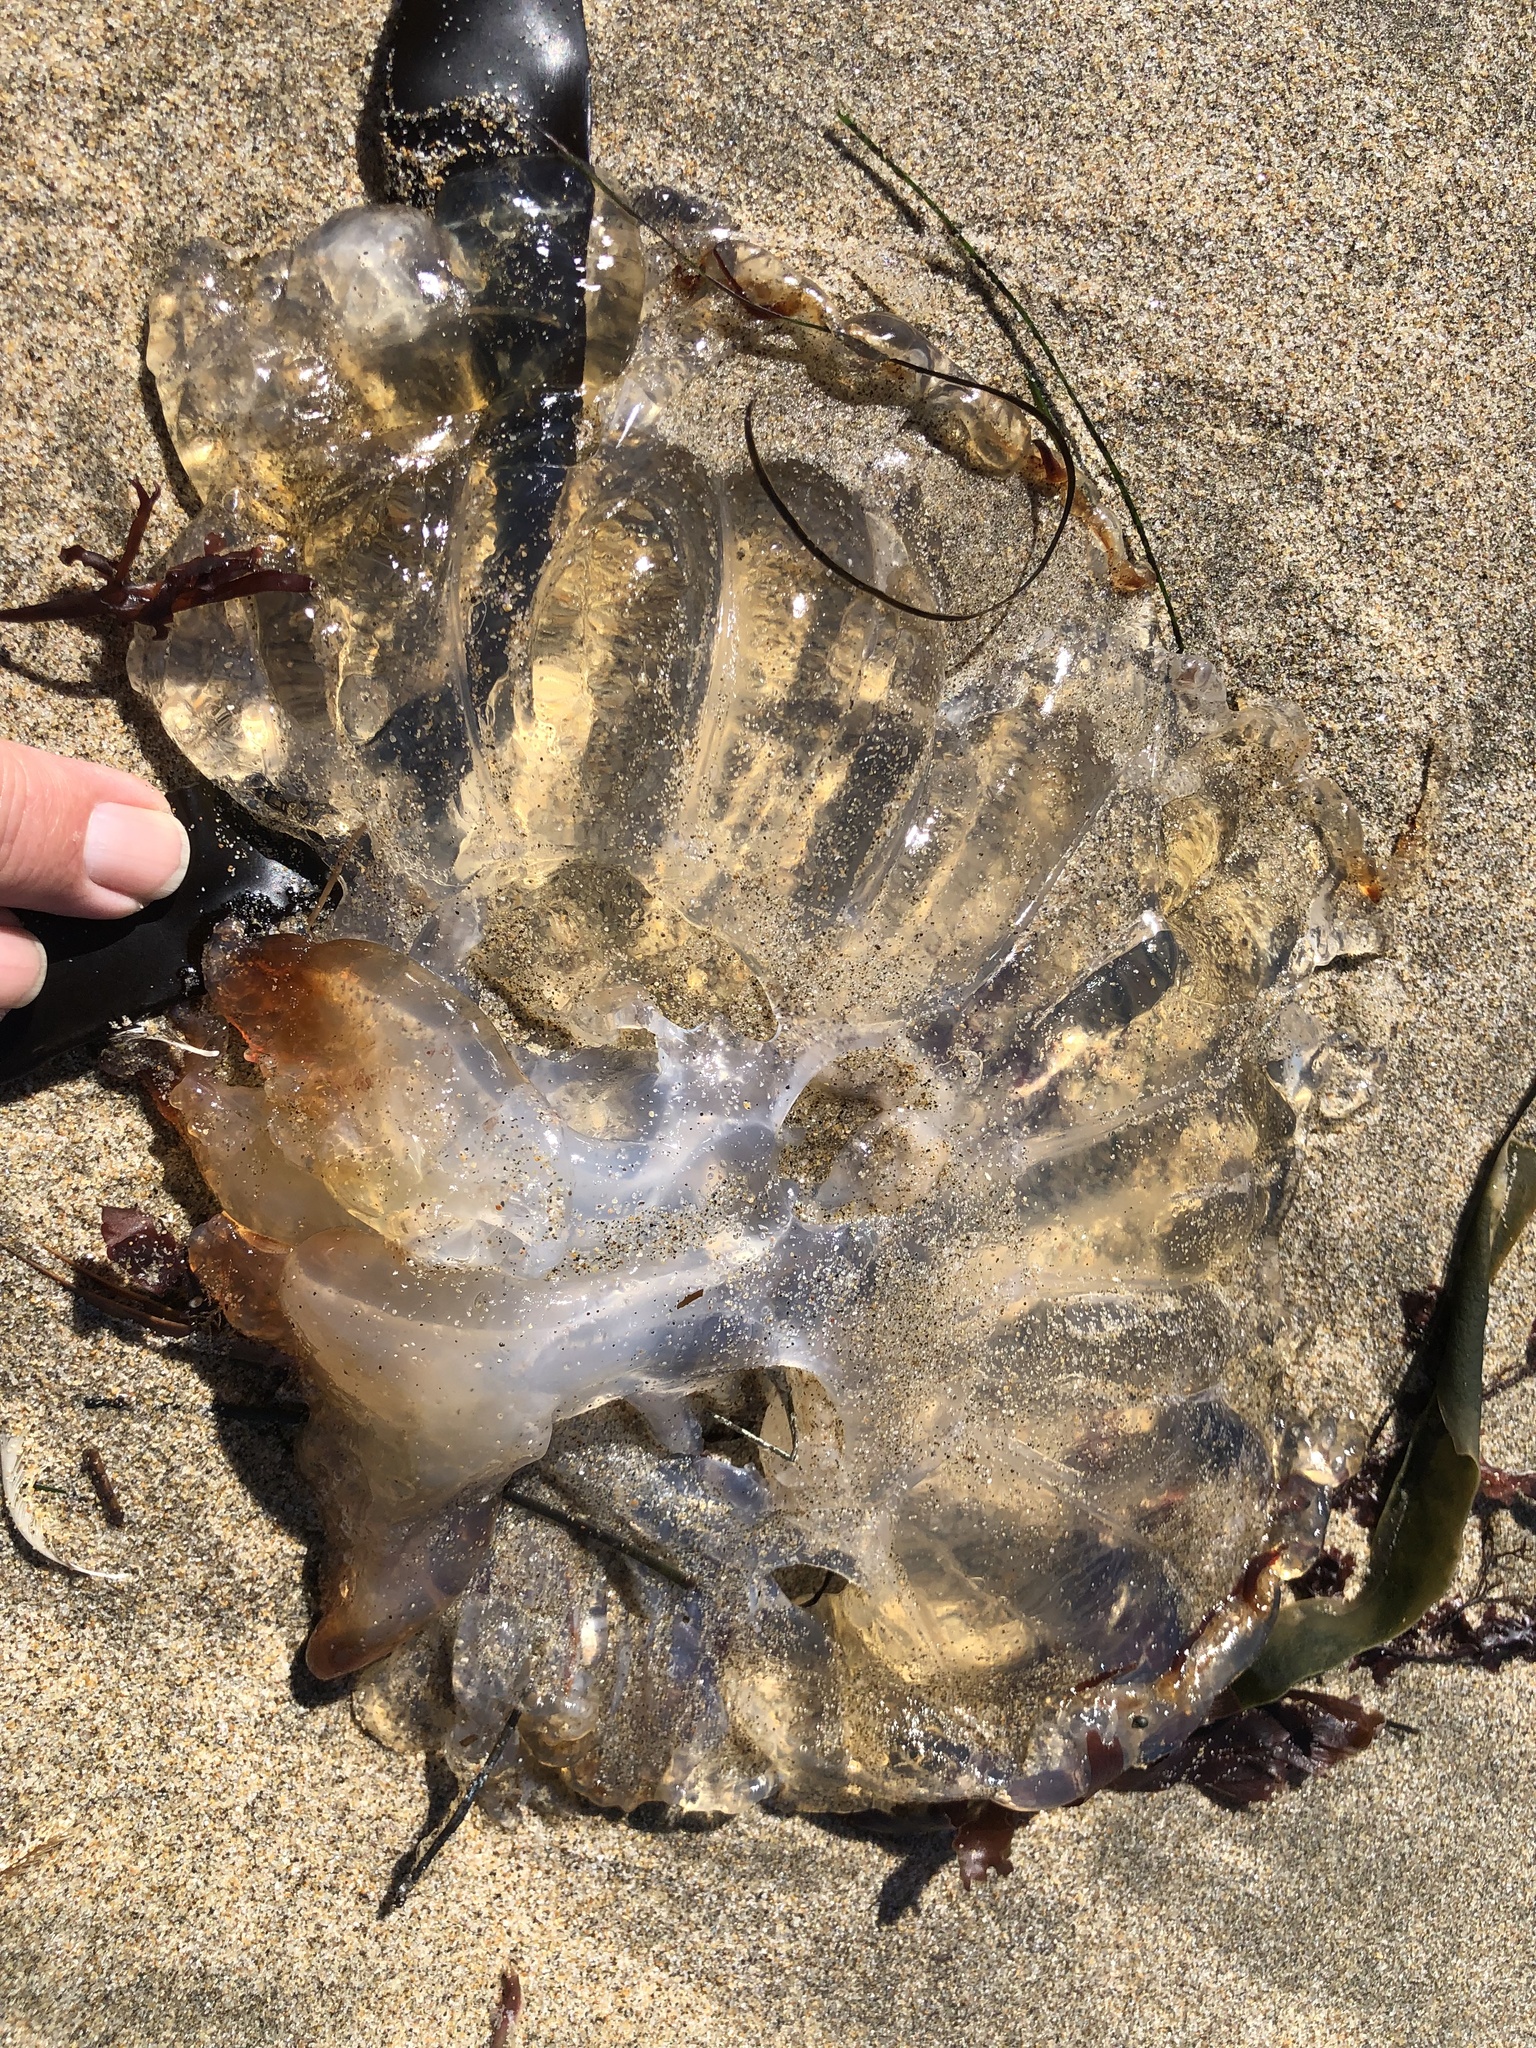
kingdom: Animalia
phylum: Cnidaria
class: Scyphozoa
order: Semaeostomeae
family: Pelagiidae
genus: Chrysaora
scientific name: Chrysaora fuscescens
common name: Sea nettle
